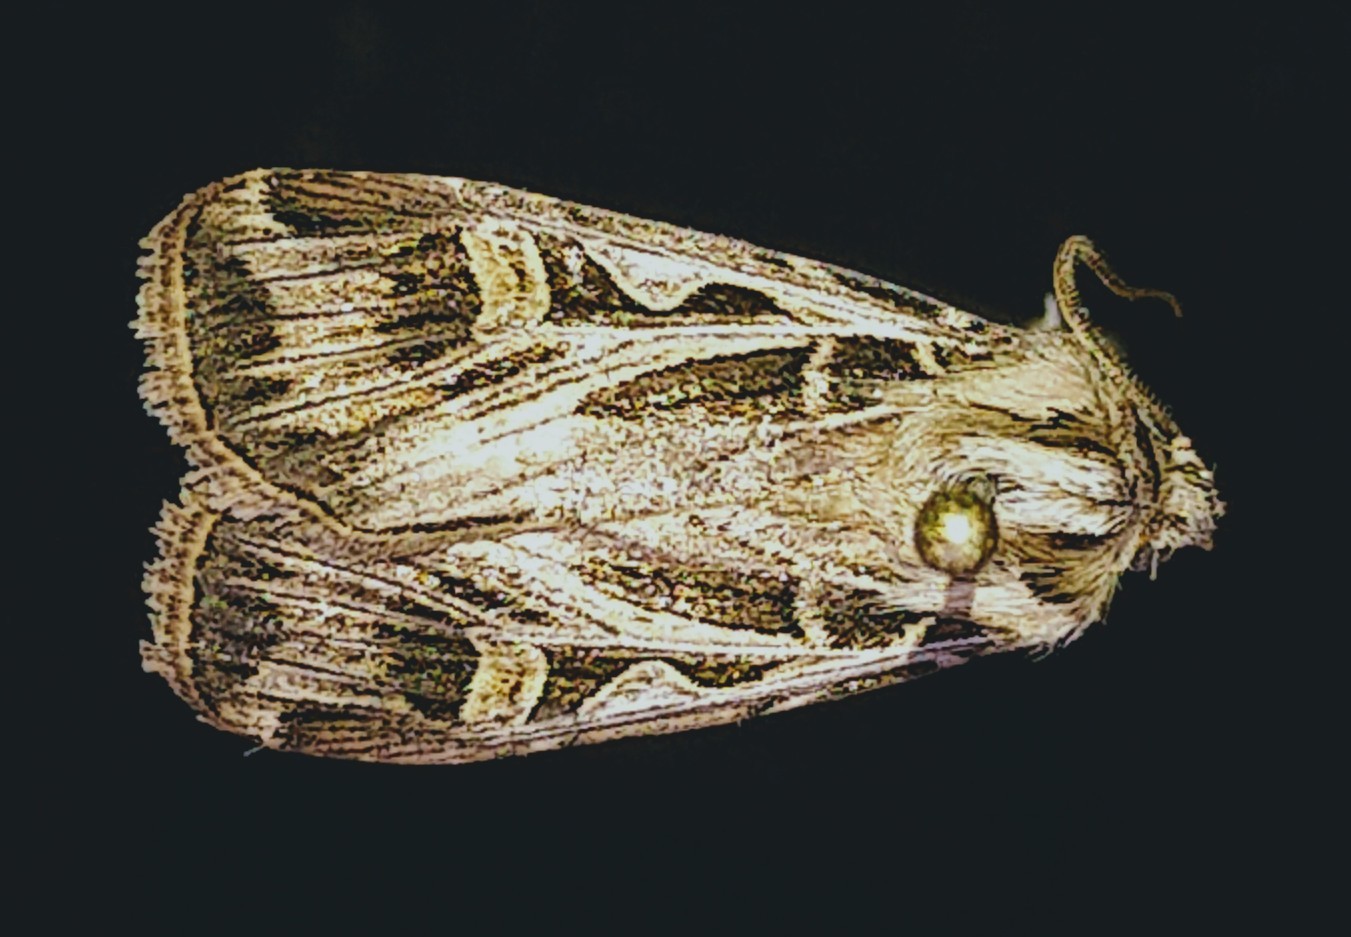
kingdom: Animalia
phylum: Arthropoda
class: Insecta
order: Lepidoptera
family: Noctuidae
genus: Feltia
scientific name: Feltia jaculifera
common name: Dingy cutworm moth
